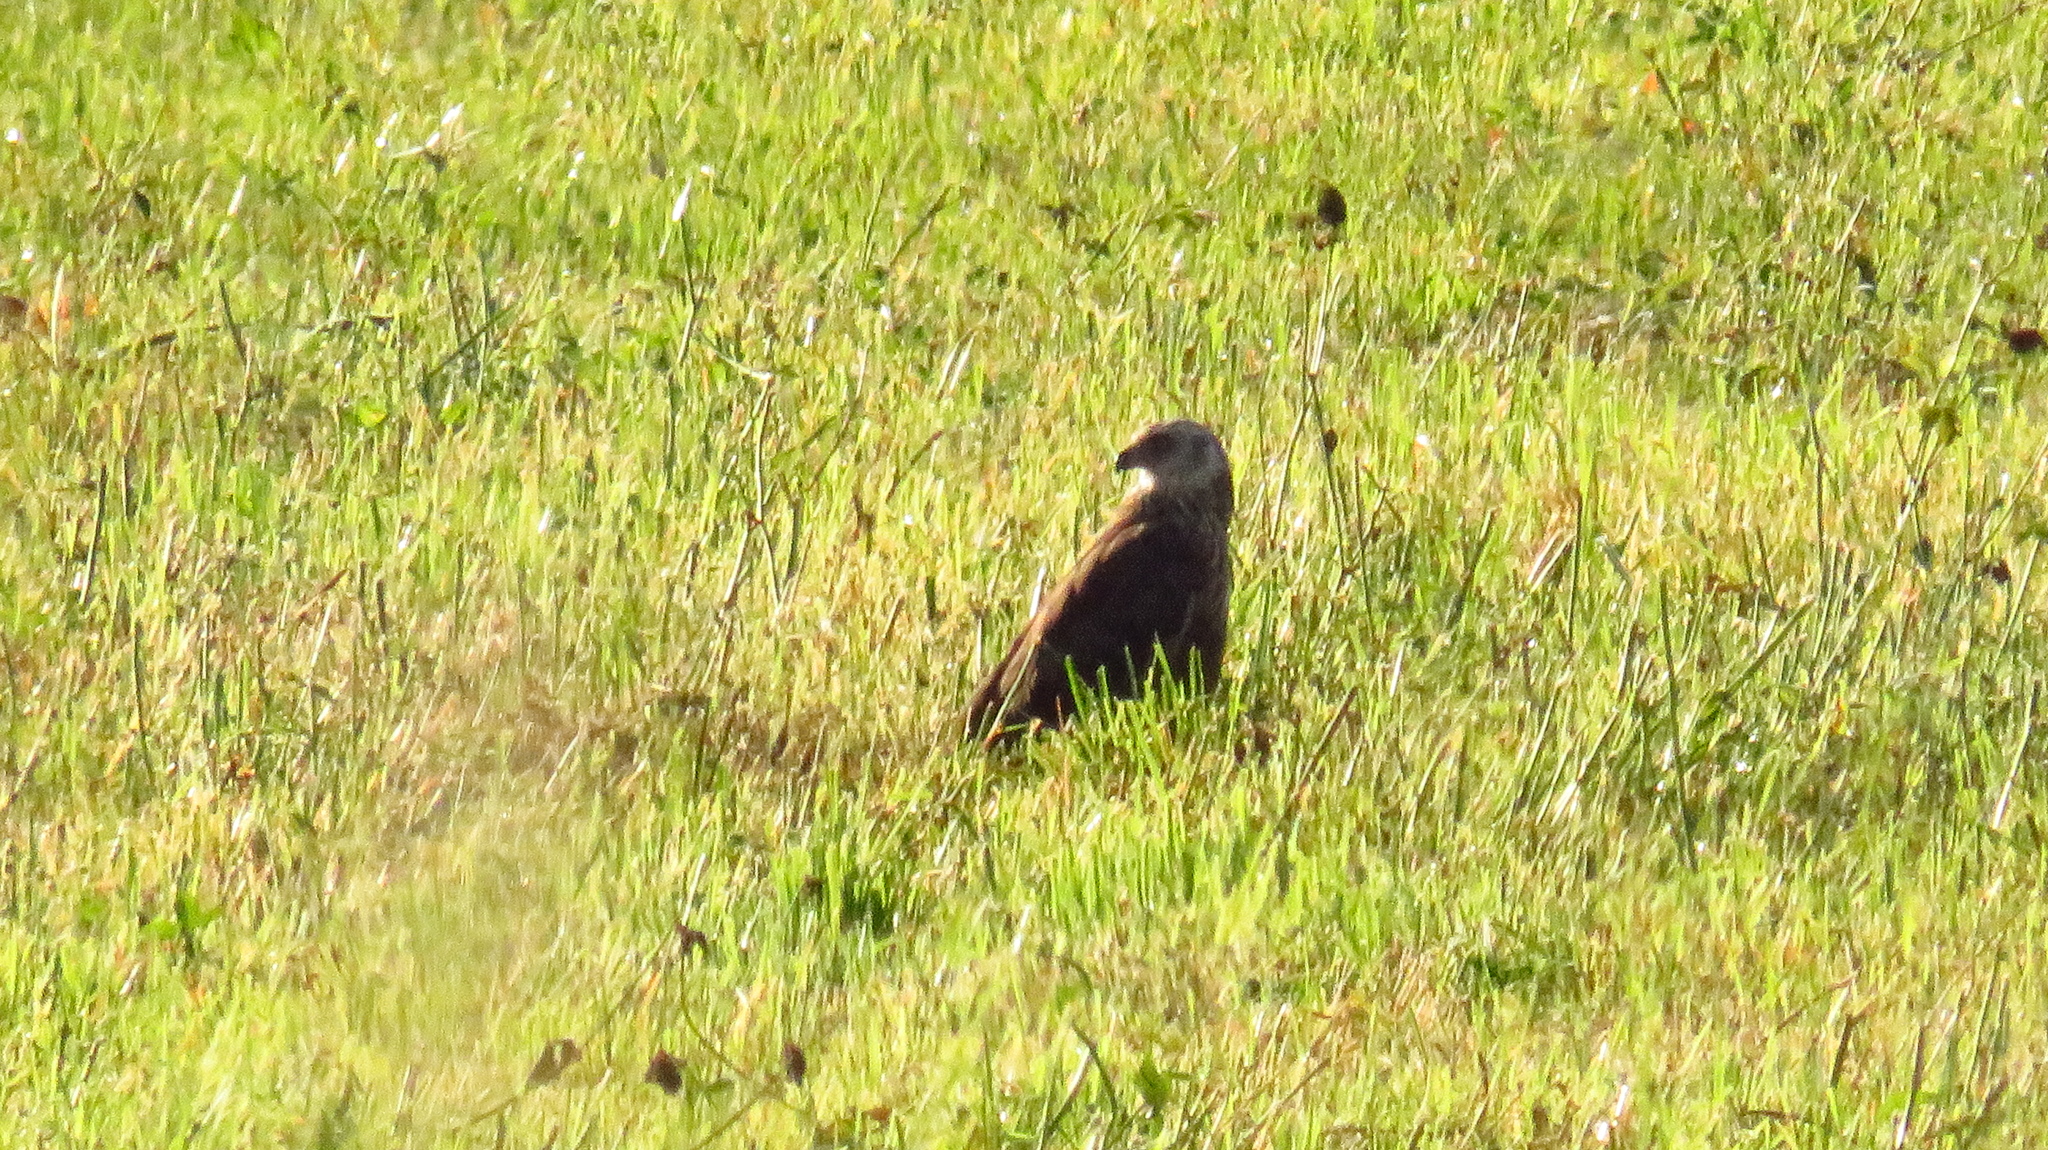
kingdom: Animalia
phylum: Chordata
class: Aves
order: Accipitriformes
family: Accipitridae
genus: Circus
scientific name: Circus aeruginosus
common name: Western marsh harrier
